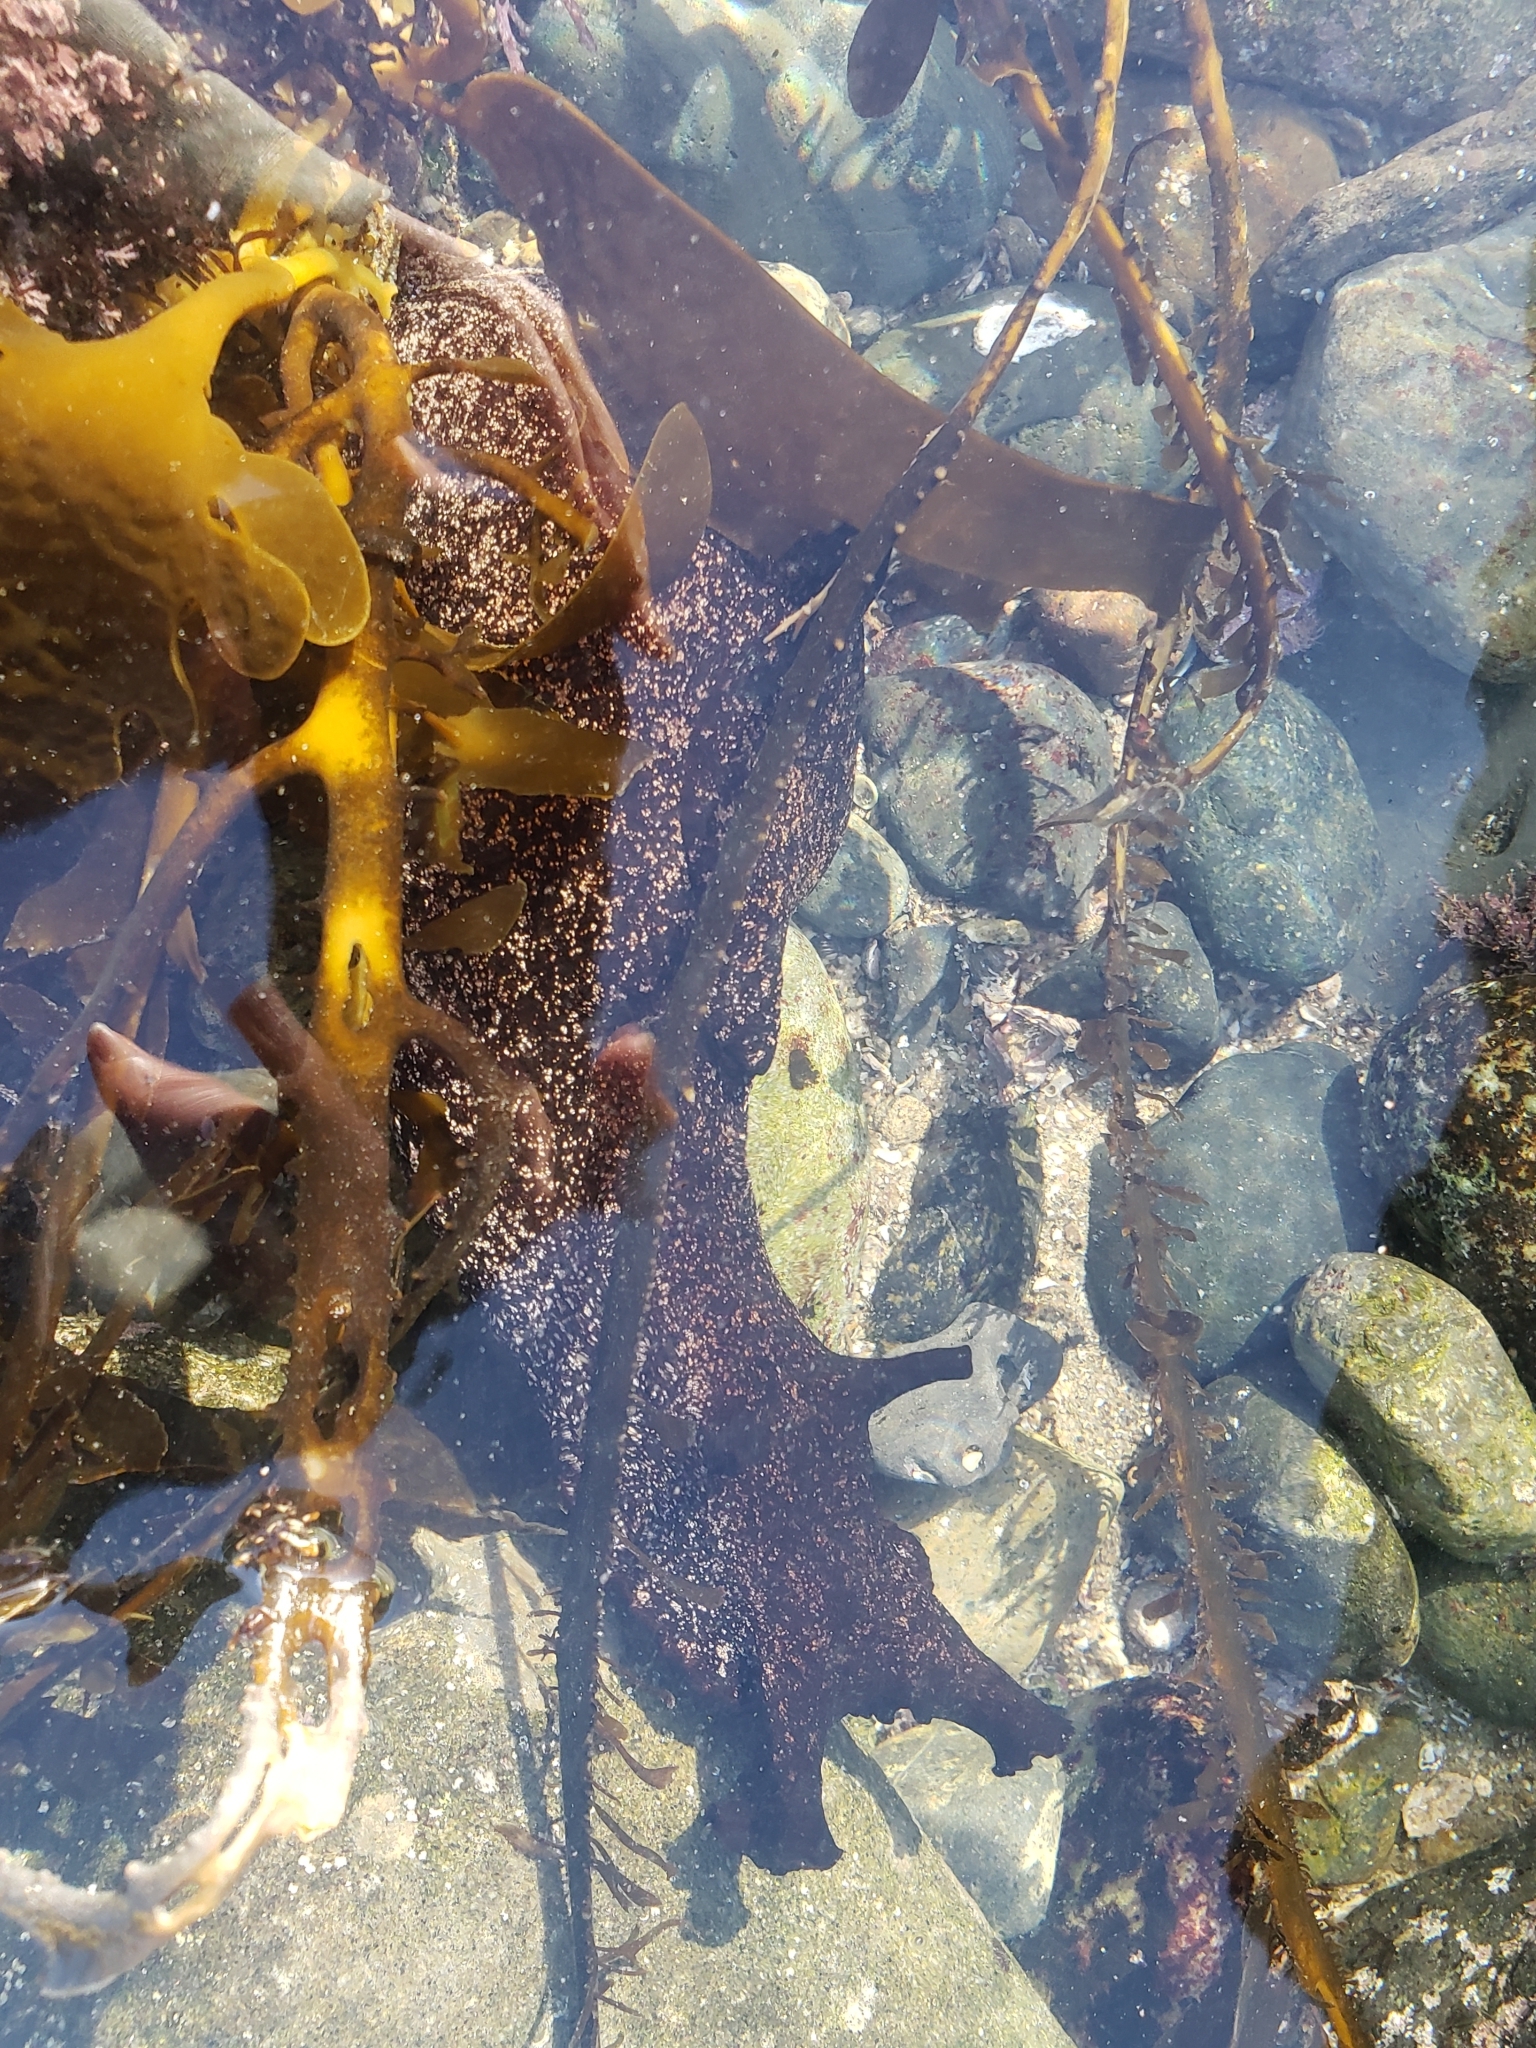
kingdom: Animalia
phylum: Mollusca
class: Gastropoda
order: Aplysiida
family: Aplysiidae
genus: Aplysia
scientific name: Aplysia vaccaria
